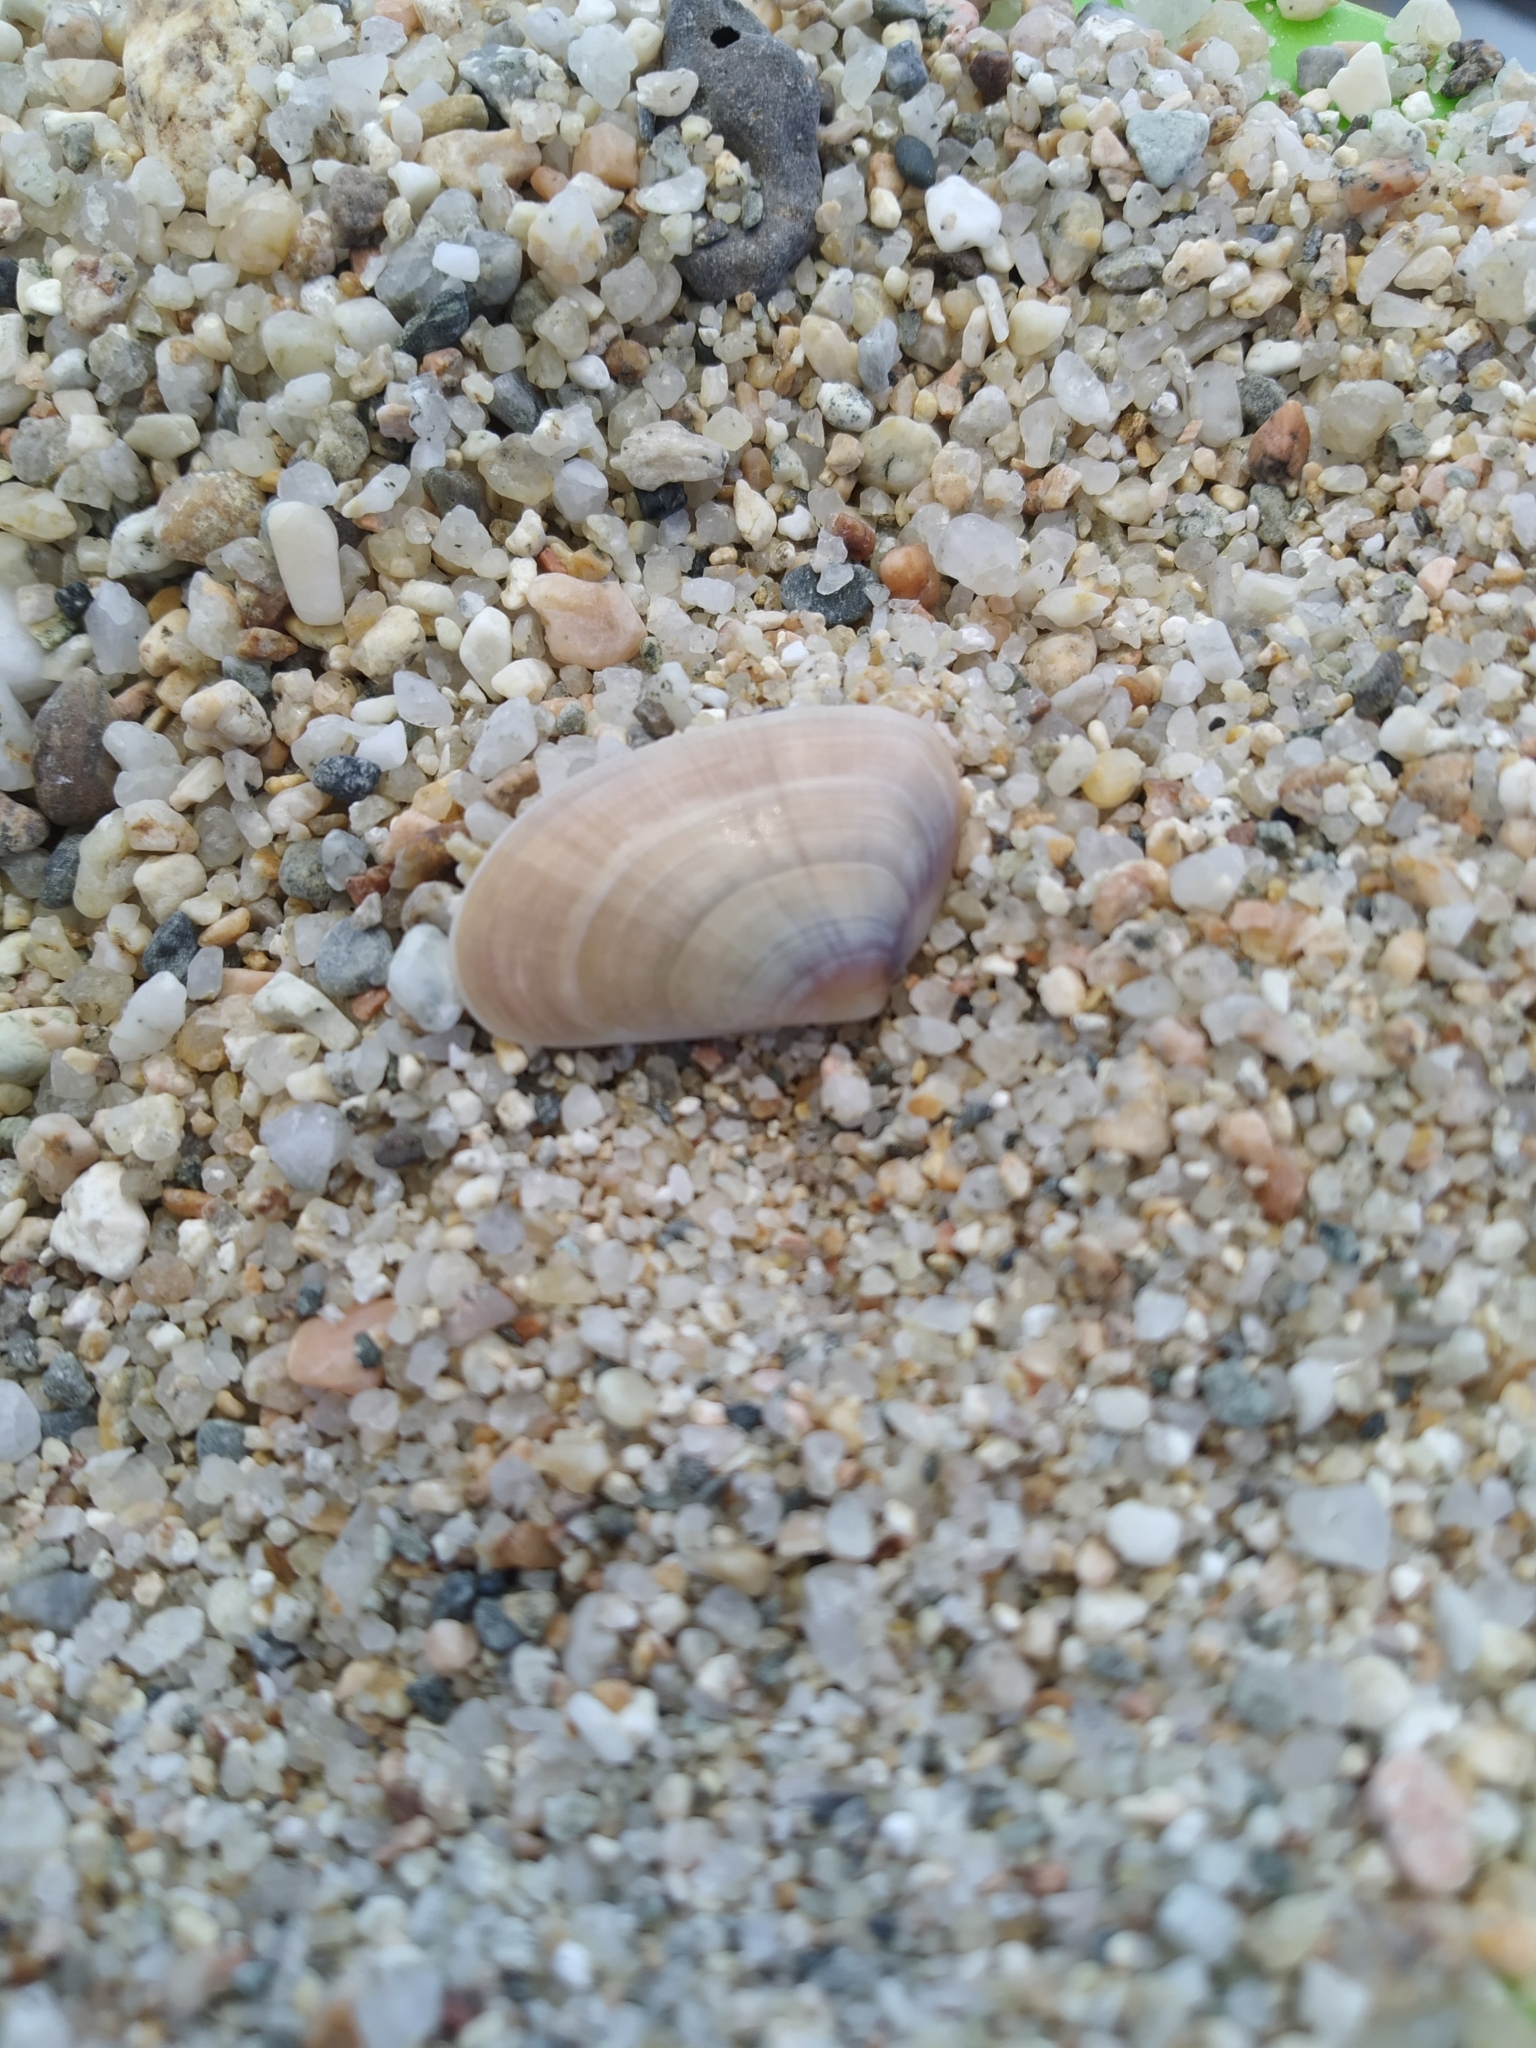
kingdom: Animalia
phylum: Mollusca
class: Bivalvia
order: Cardiida
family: Donacidae
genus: Donax
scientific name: Donax trunculus
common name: Truncate donax
